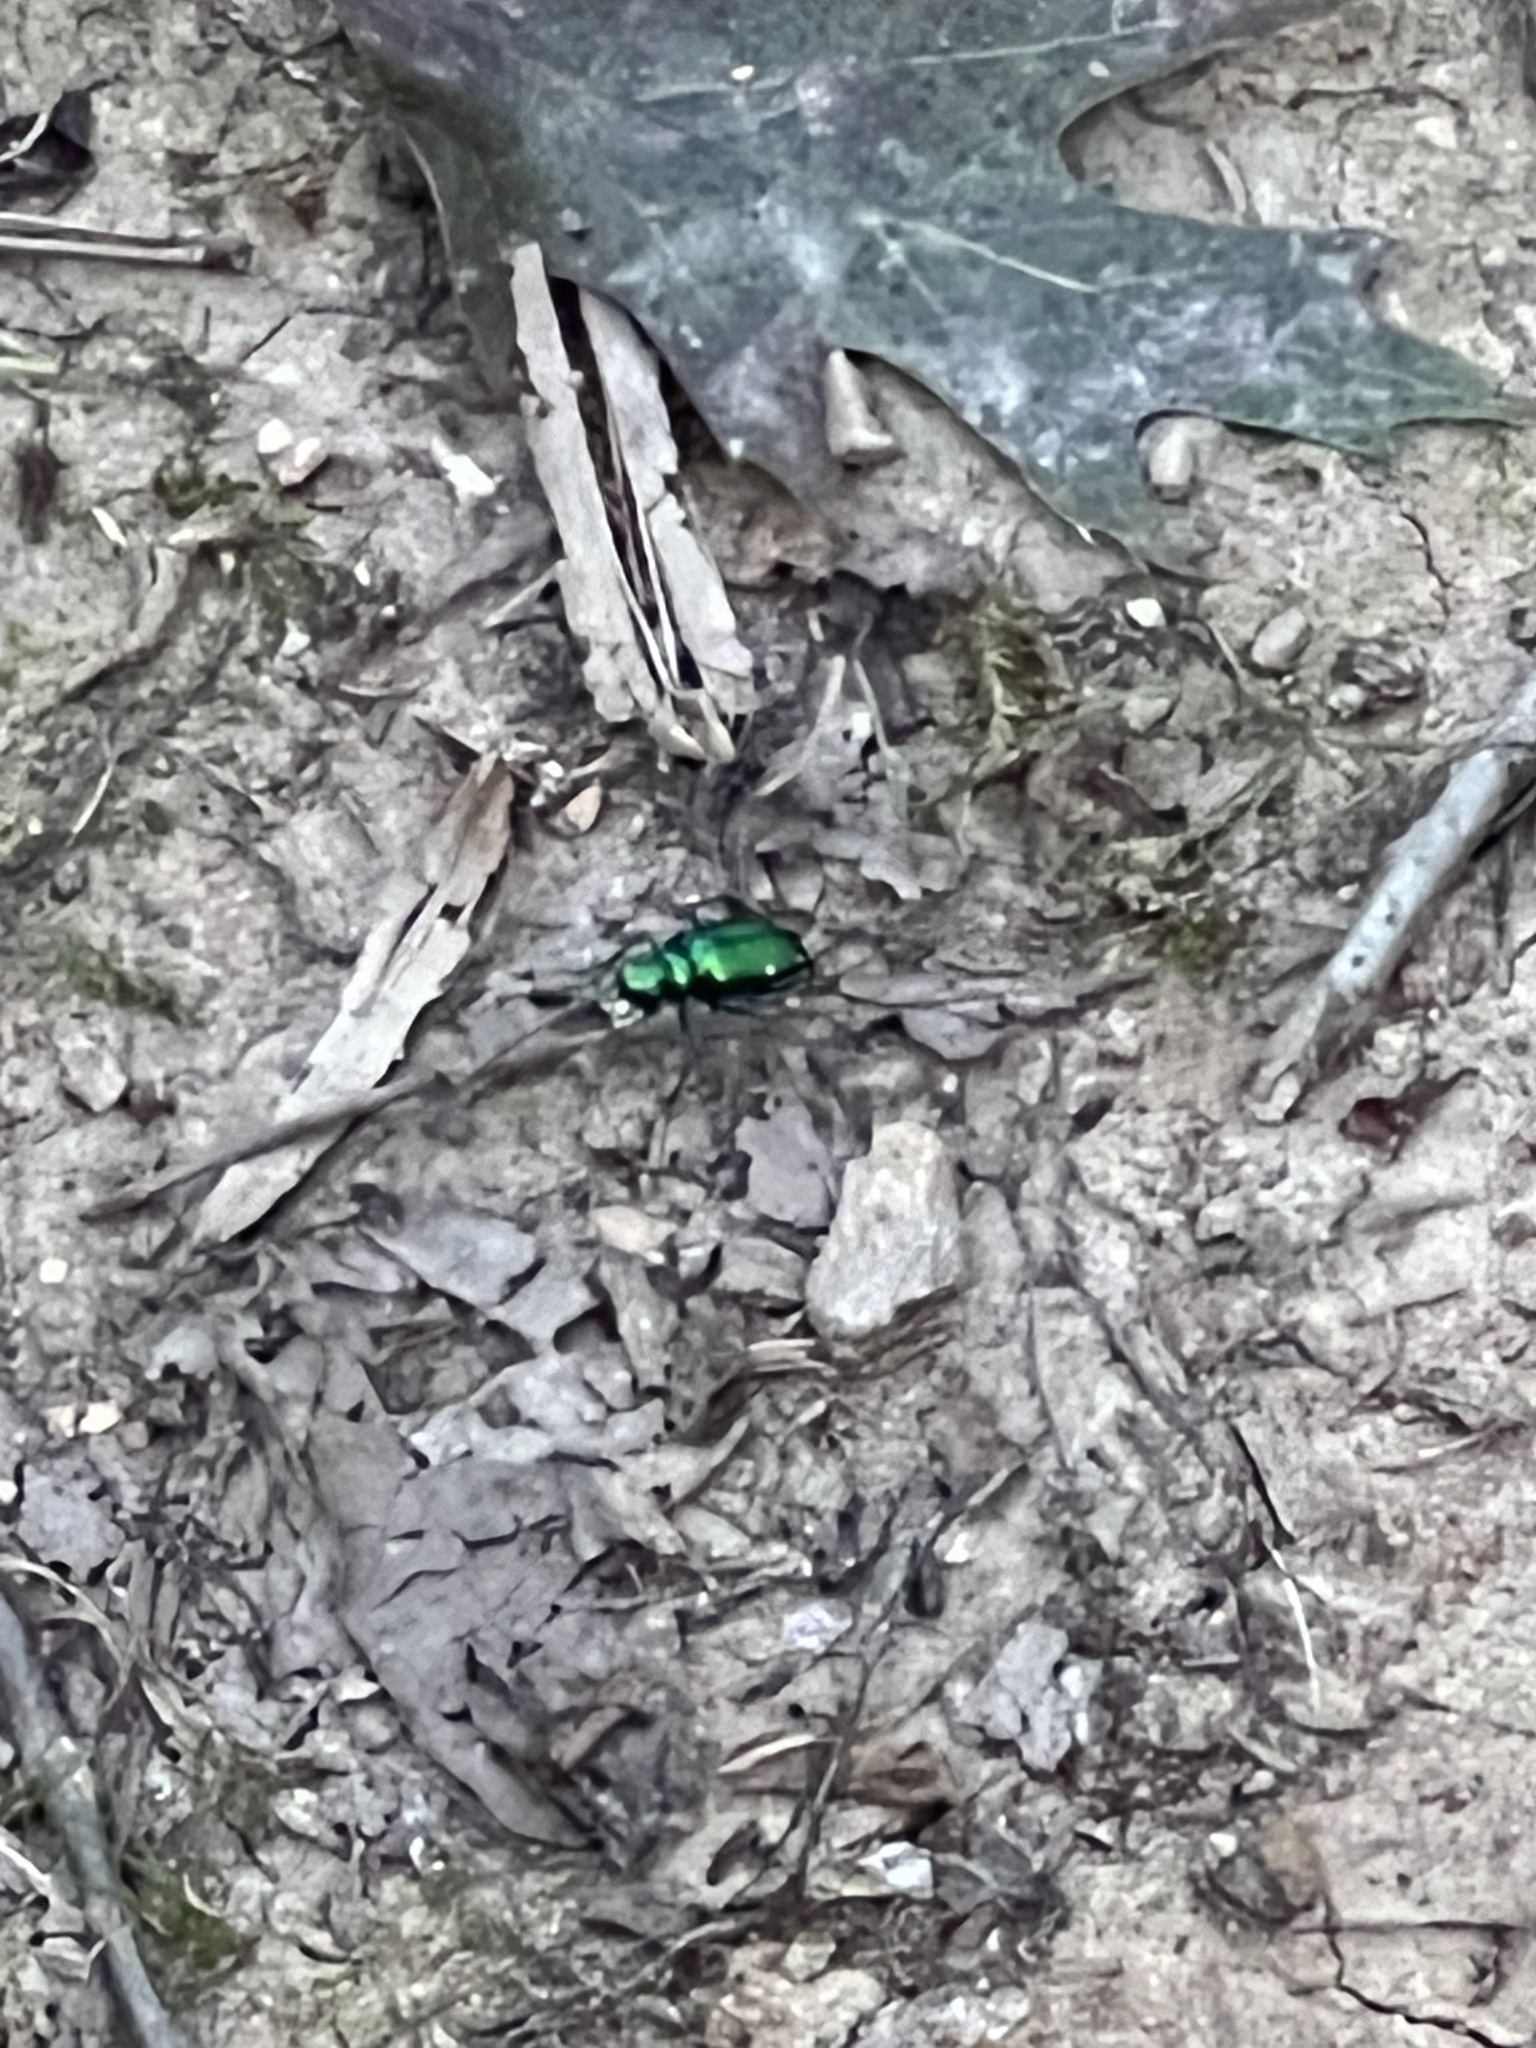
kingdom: Animalia
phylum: Arthropoda
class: Insecta
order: Coleoptera
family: Carabidae
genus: Cicindela
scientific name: Cicindela sexguttata
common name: Six-spotted tiger beetle
